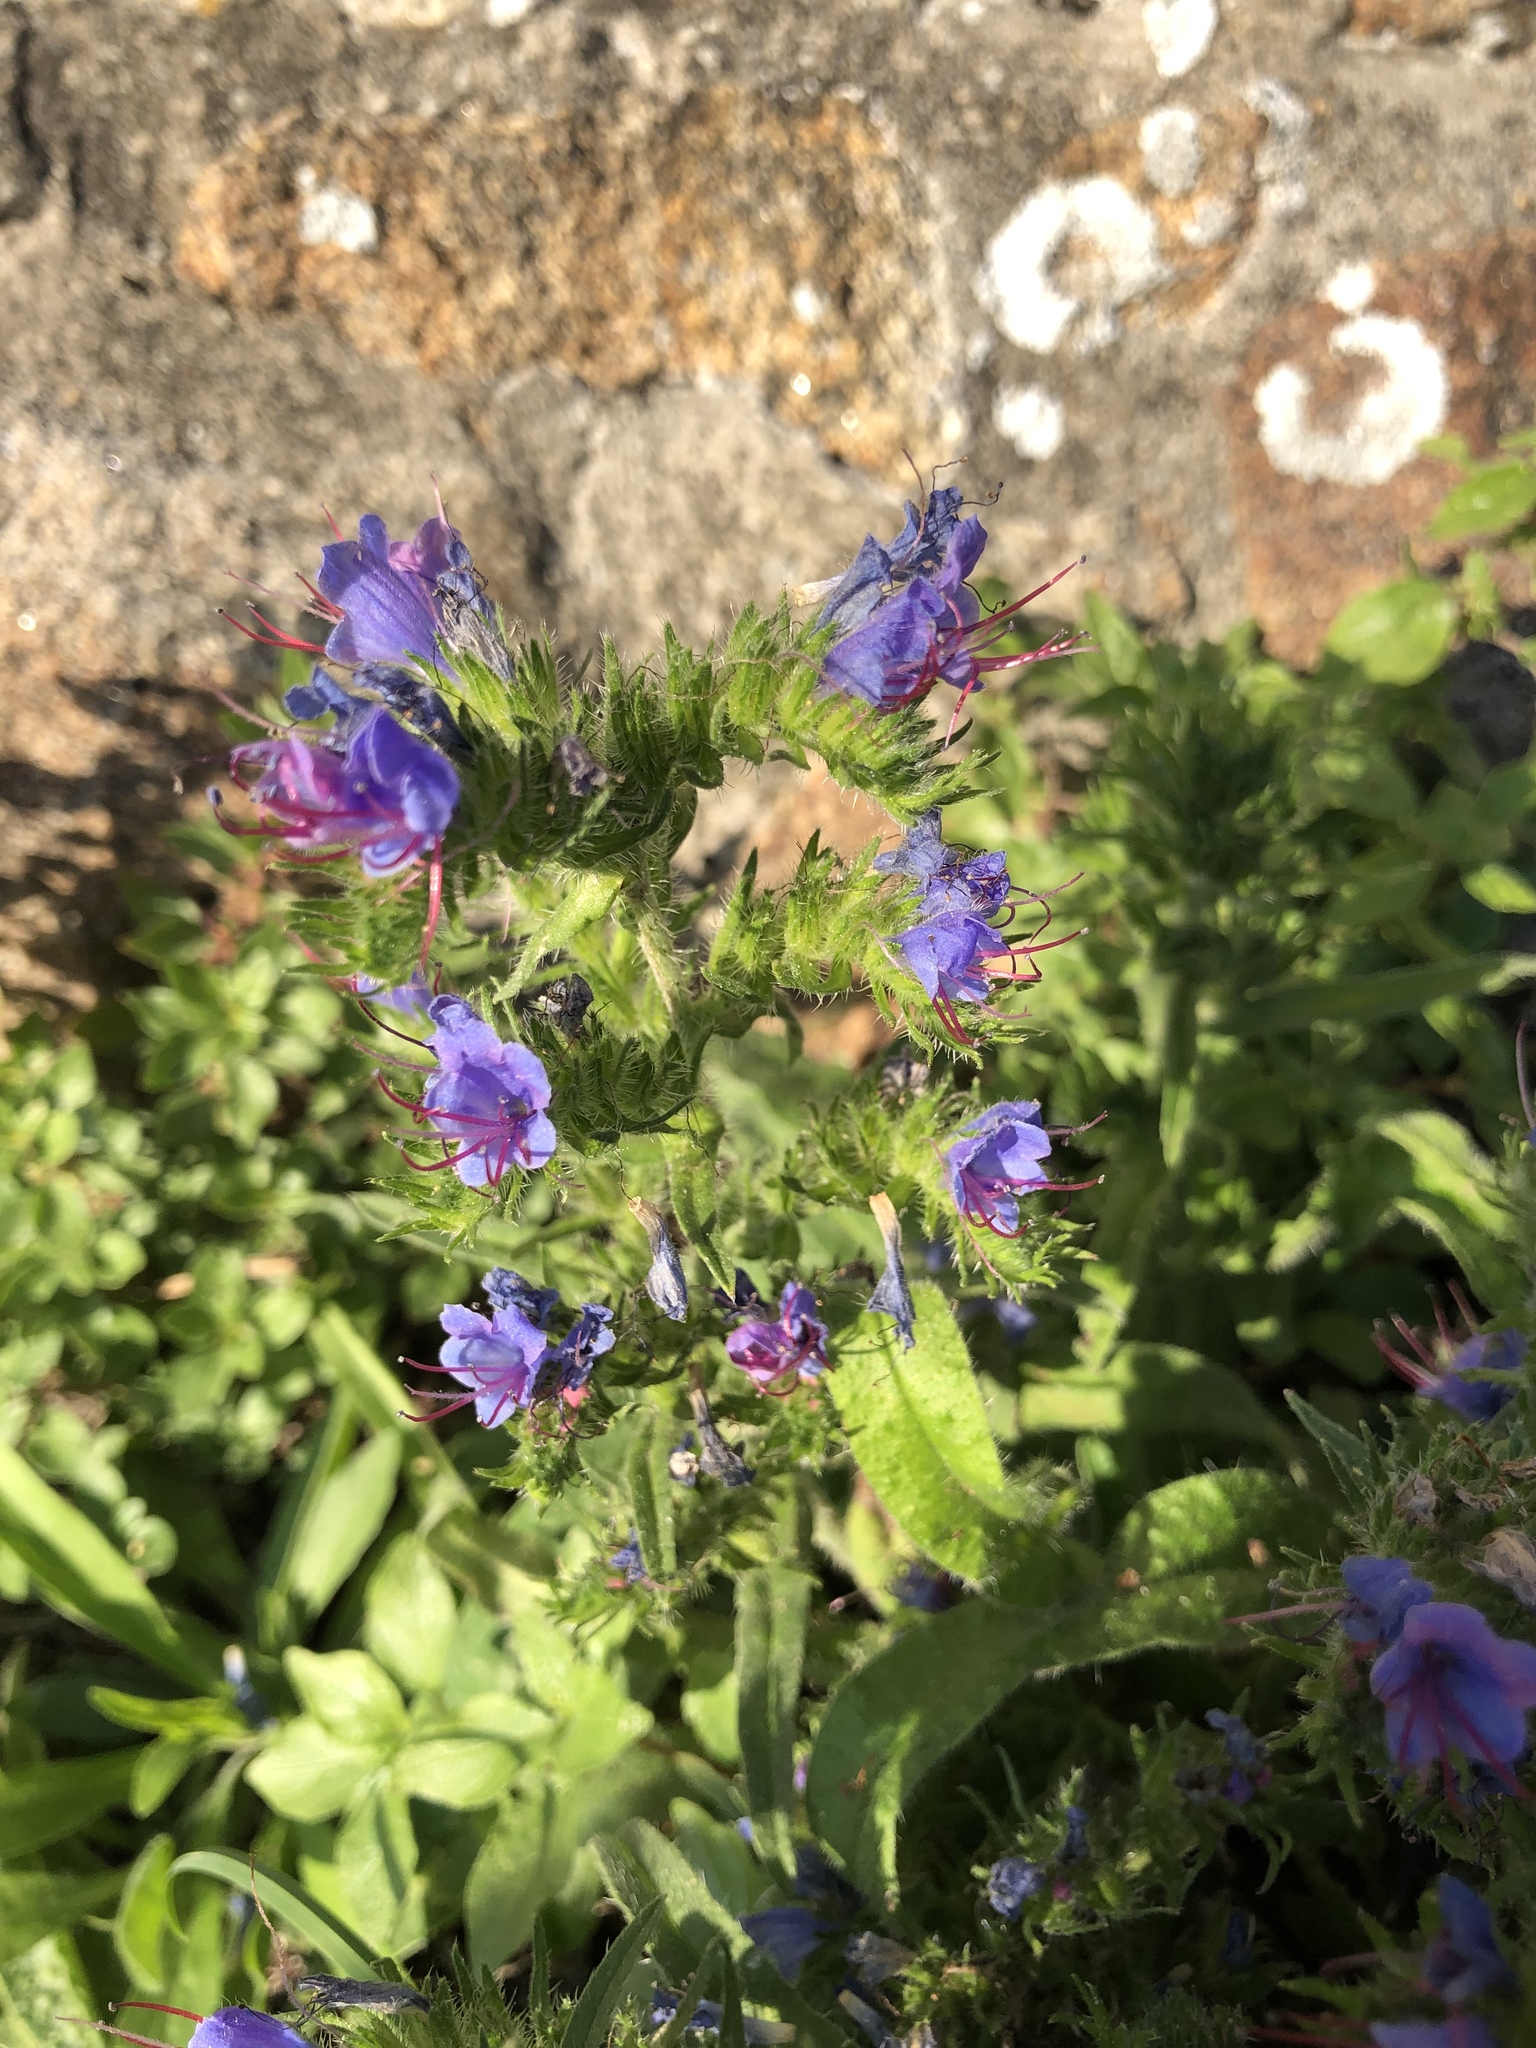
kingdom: Plantae
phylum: Tracheophyta
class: Magnoliopsida
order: Boraginales
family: Boraginaceae
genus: Echium
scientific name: Echium vulgare
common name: Common viper's bugloss
